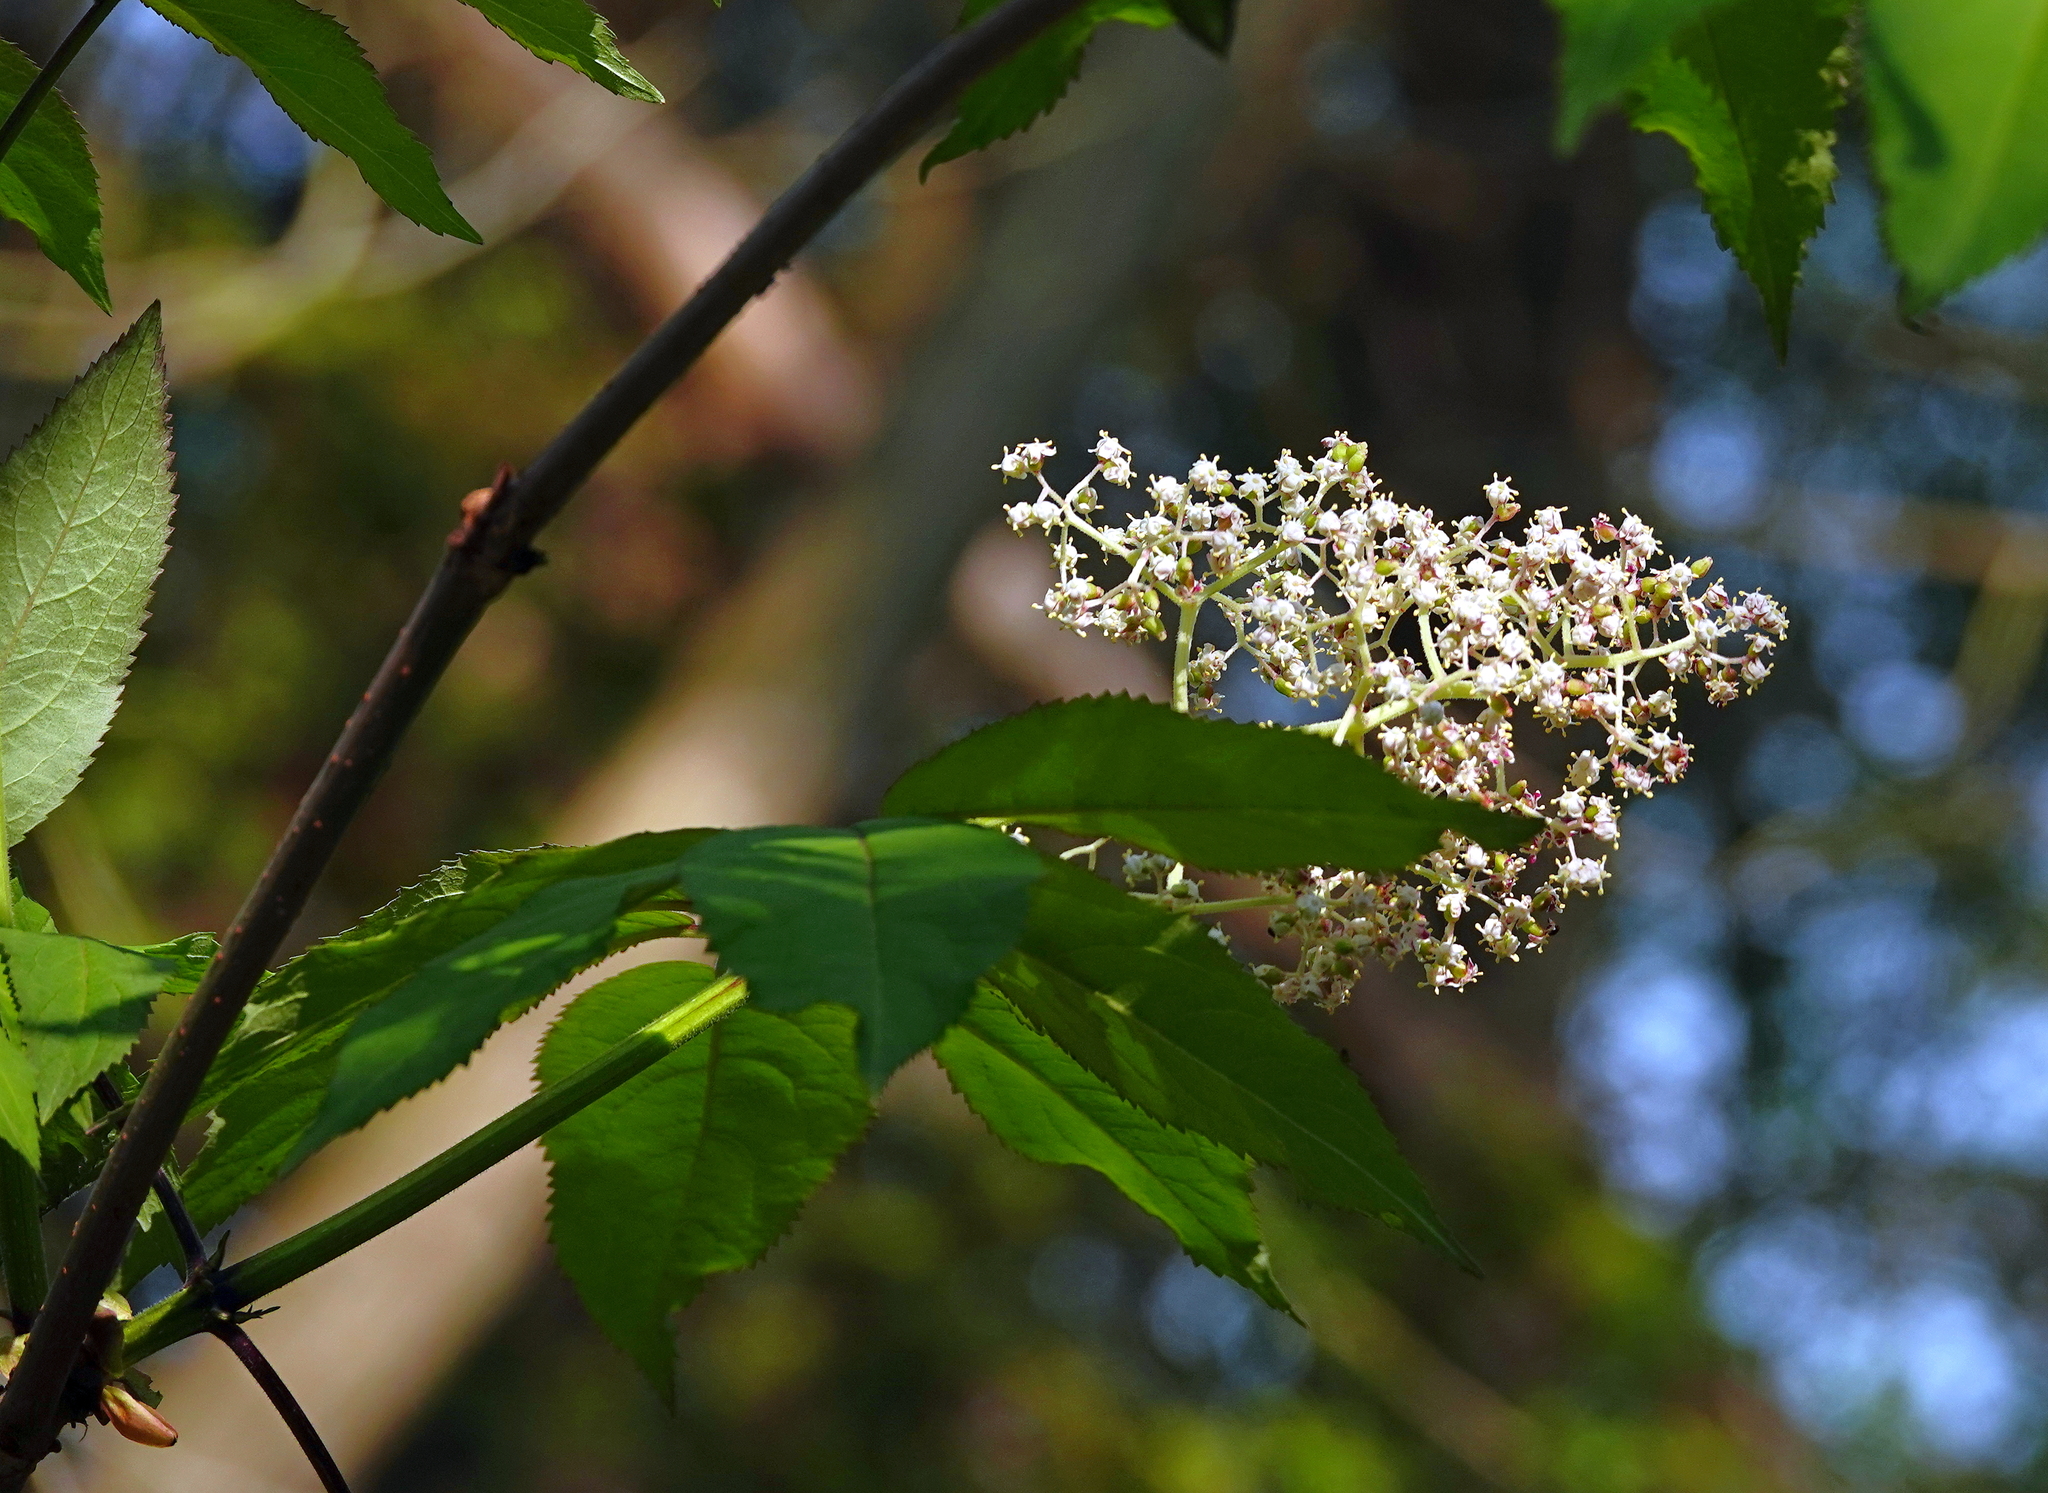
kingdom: Plantae
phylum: Tracheophyta
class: Magnoliopsida
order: Dipsacales
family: Viburnaceae
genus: Sambucus
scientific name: Sambucus racemosa
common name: Red-berried elder
